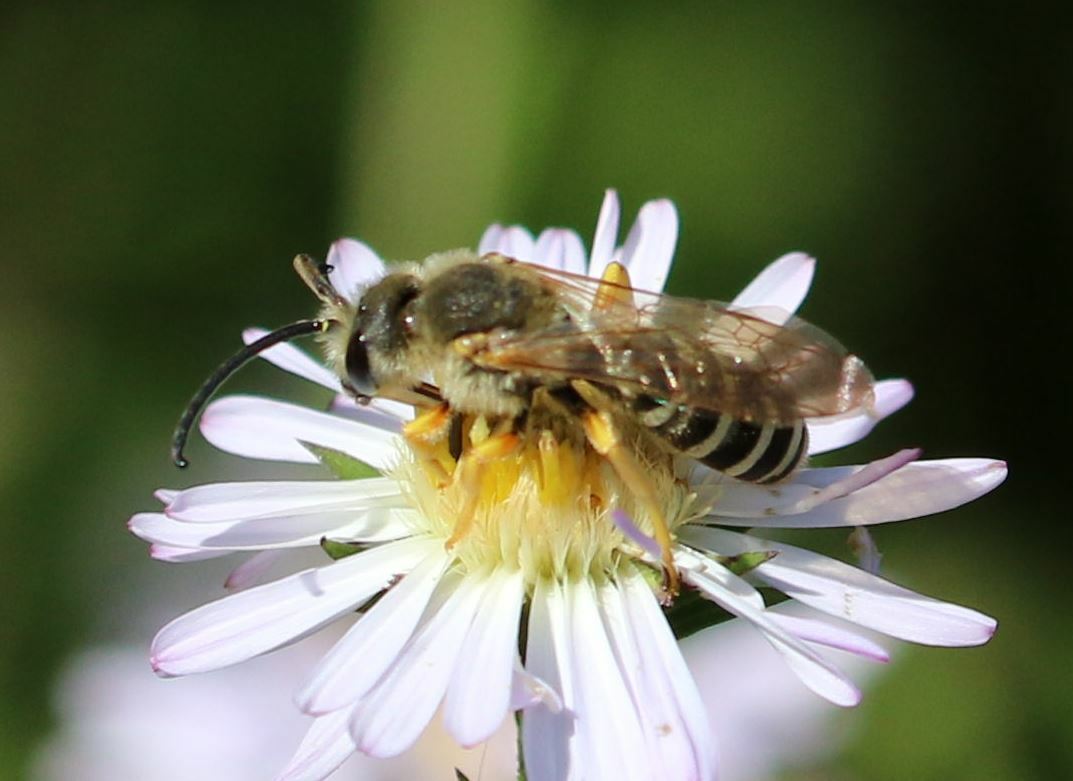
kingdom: Animalia
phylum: Arthropoda
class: Insecta
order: Hymenoptera
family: Halictidae
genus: Halictus
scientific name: Halictus scabiosae
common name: Great banded furrow bee
